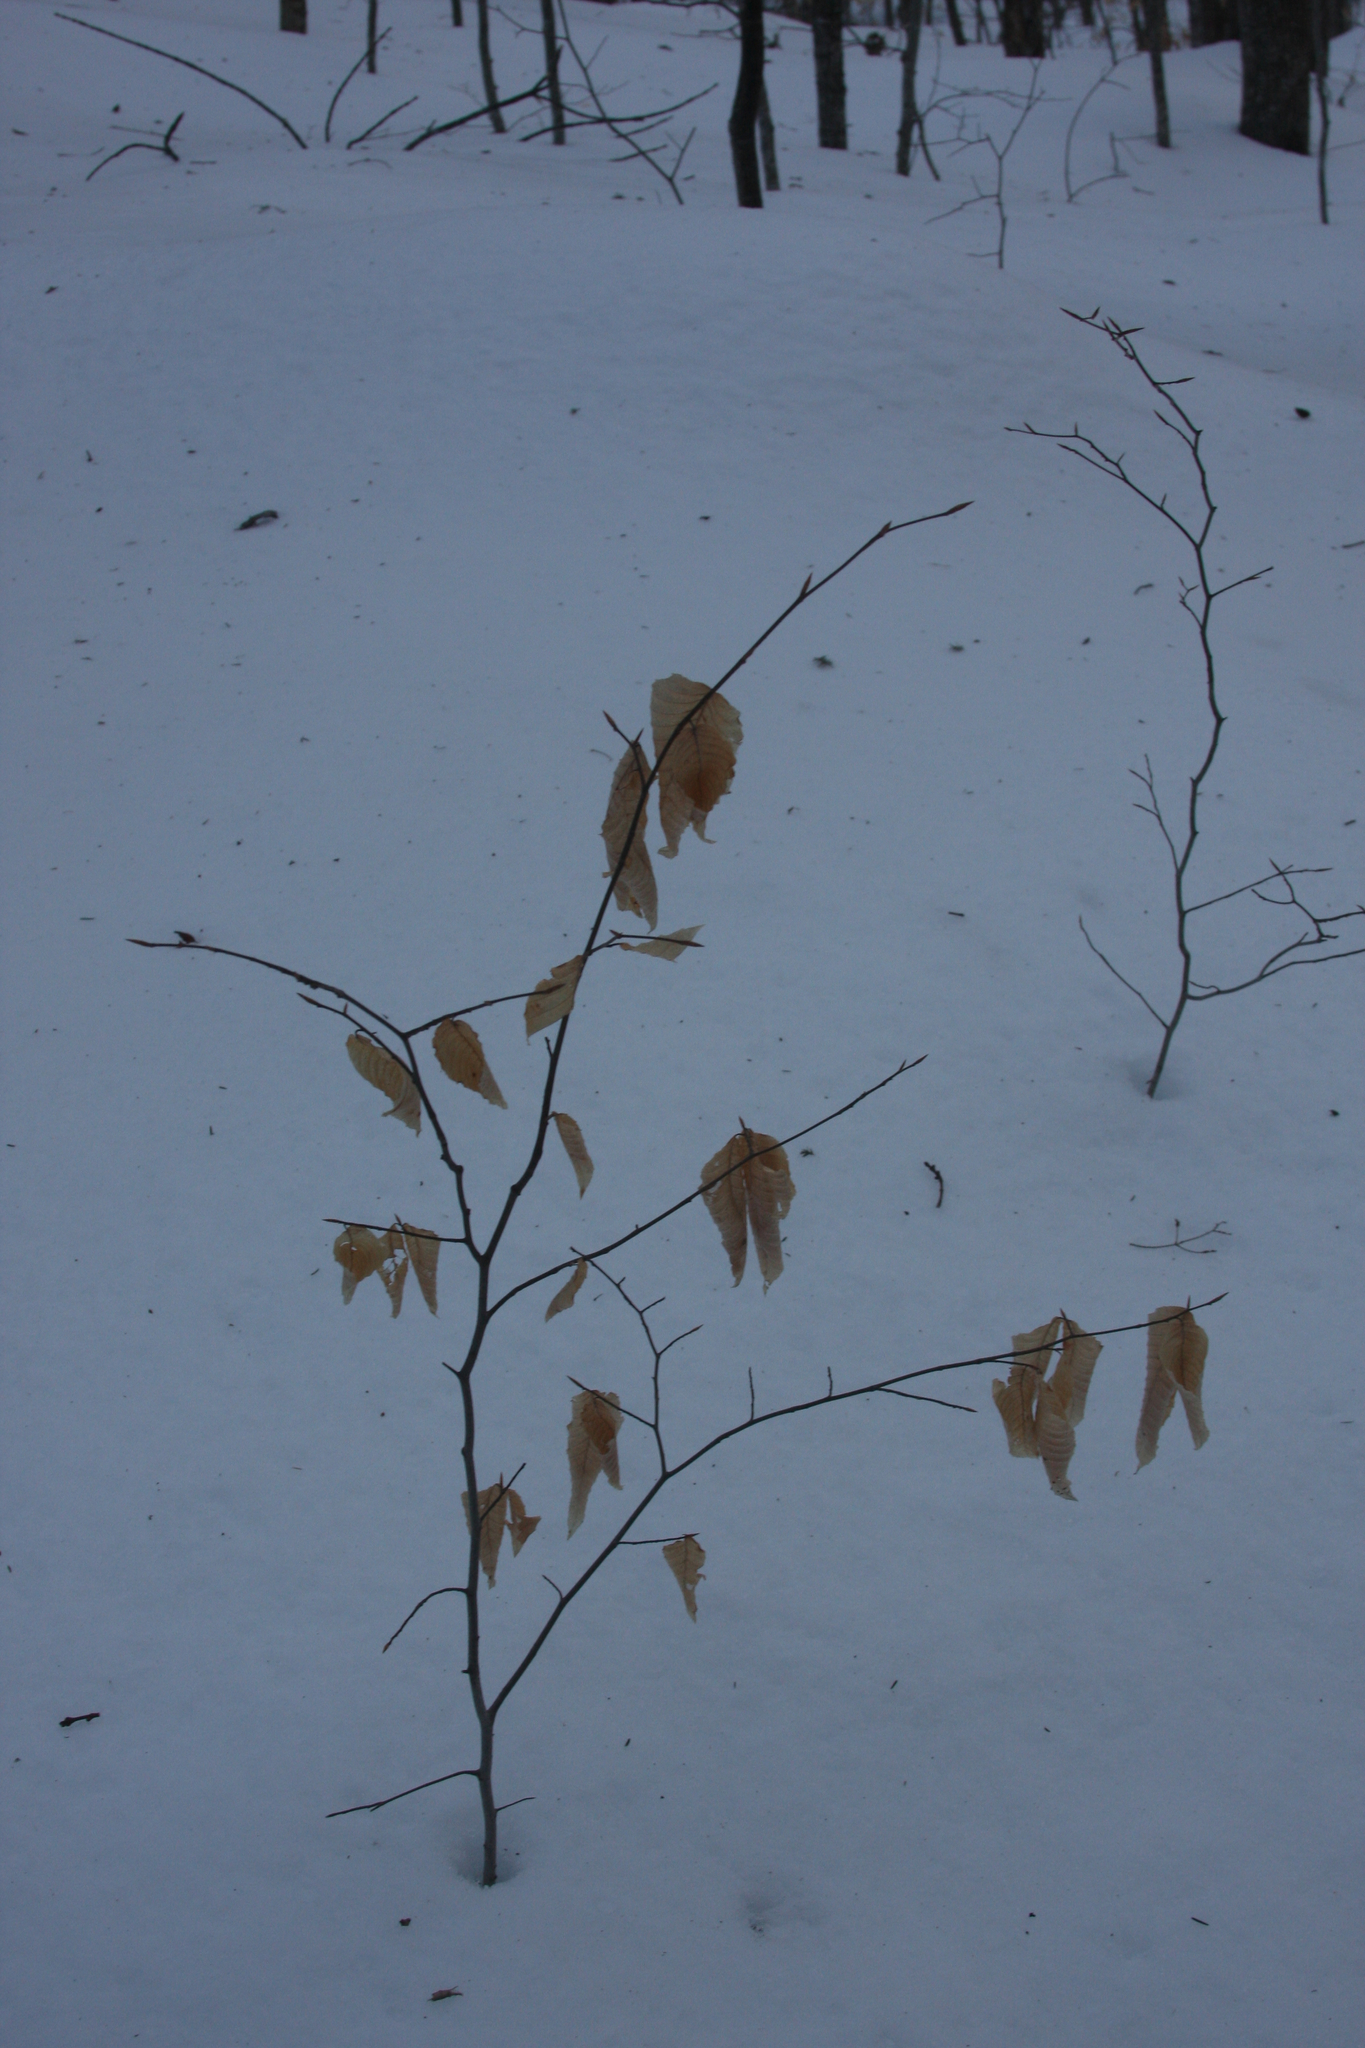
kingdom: Plantae
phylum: Tracheophyta
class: Magnoliopsida
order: Fagales
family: Fagaceae
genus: Fagus
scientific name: Fagus grandifolia
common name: American beech
